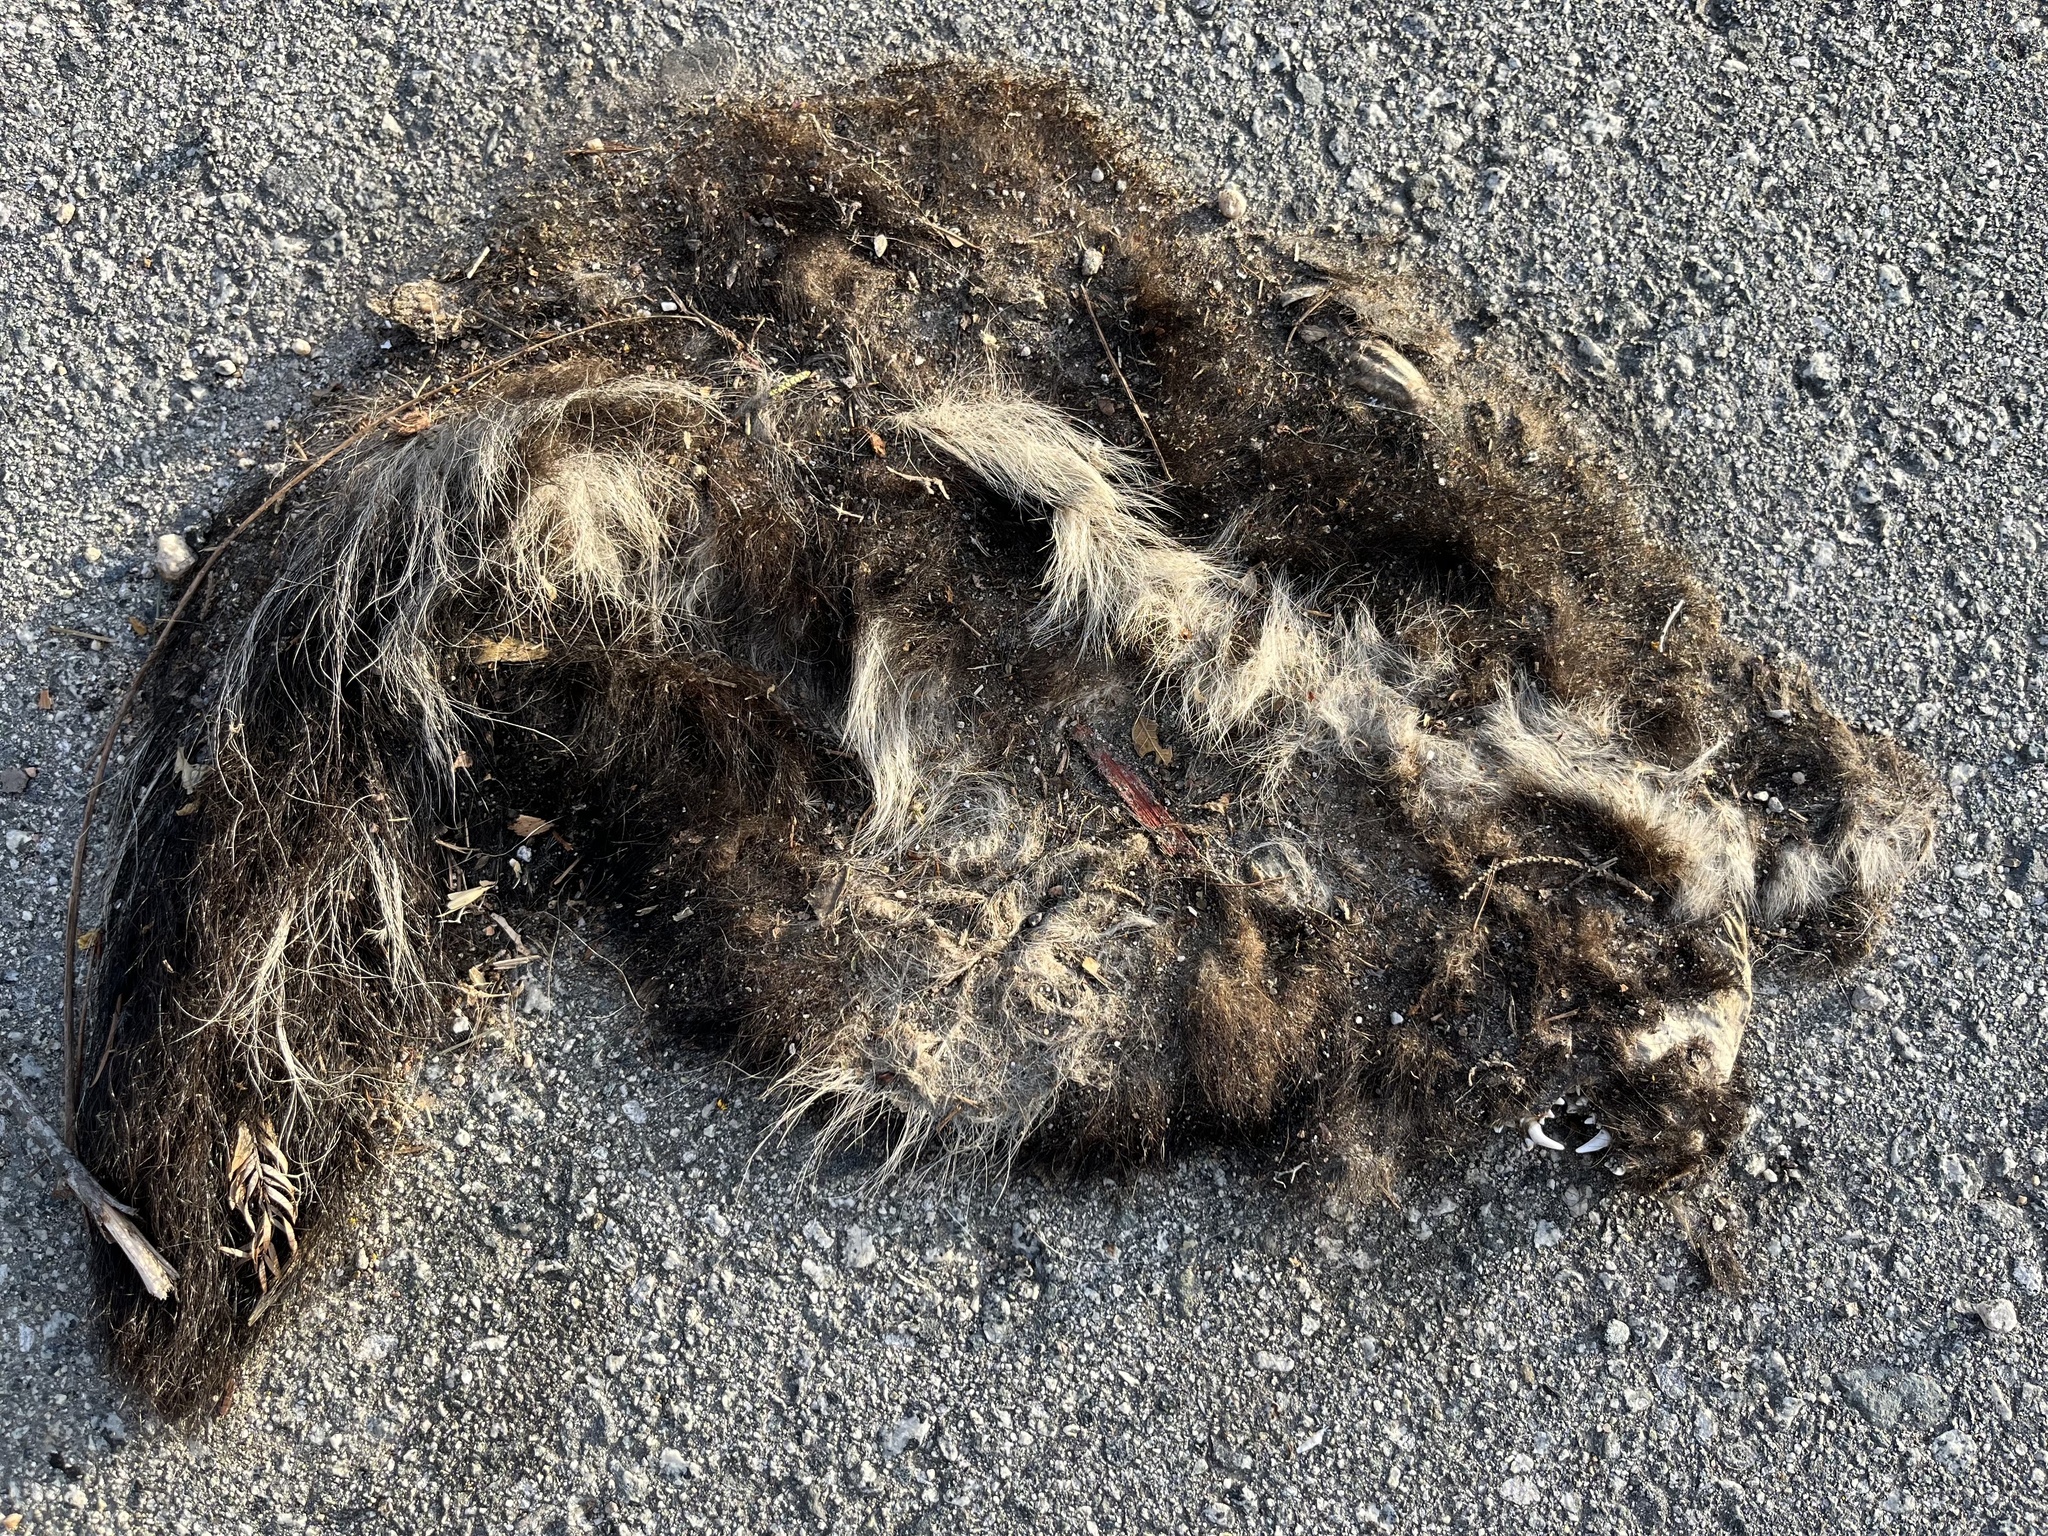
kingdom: Animalia
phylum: Chordata
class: Mammalia
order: Carnivora
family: Mephitidae
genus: Mephitis
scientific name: Mephitis mephitis
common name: Striped skunk
